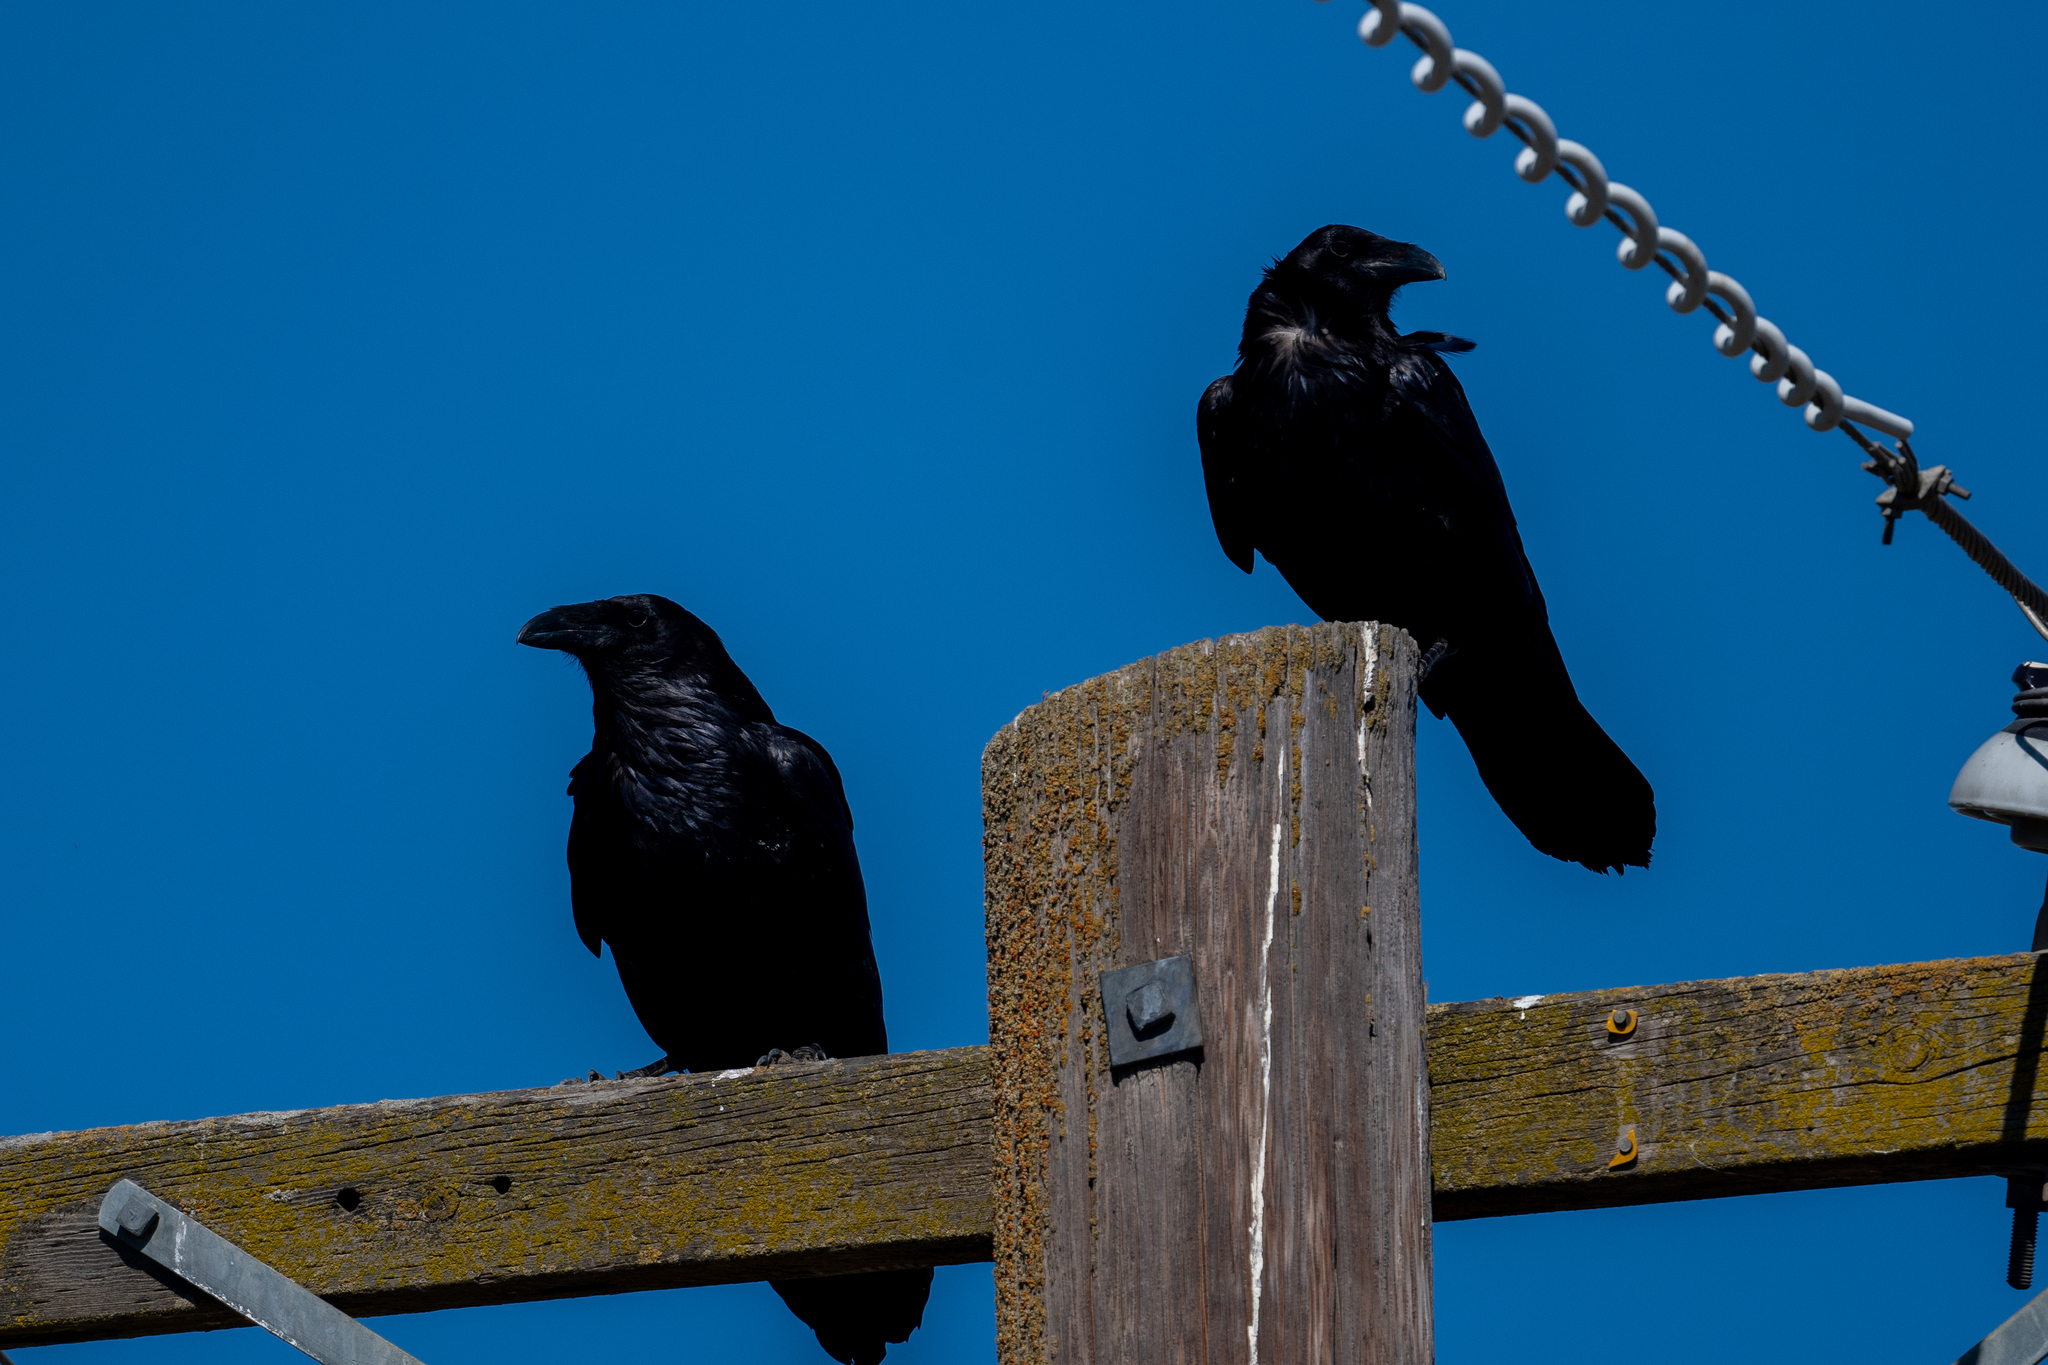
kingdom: Animalia
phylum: Chordata
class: Aves
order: Passeriformes
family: Corvidae
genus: Corvus
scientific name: Corvus corax
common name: Common raven
